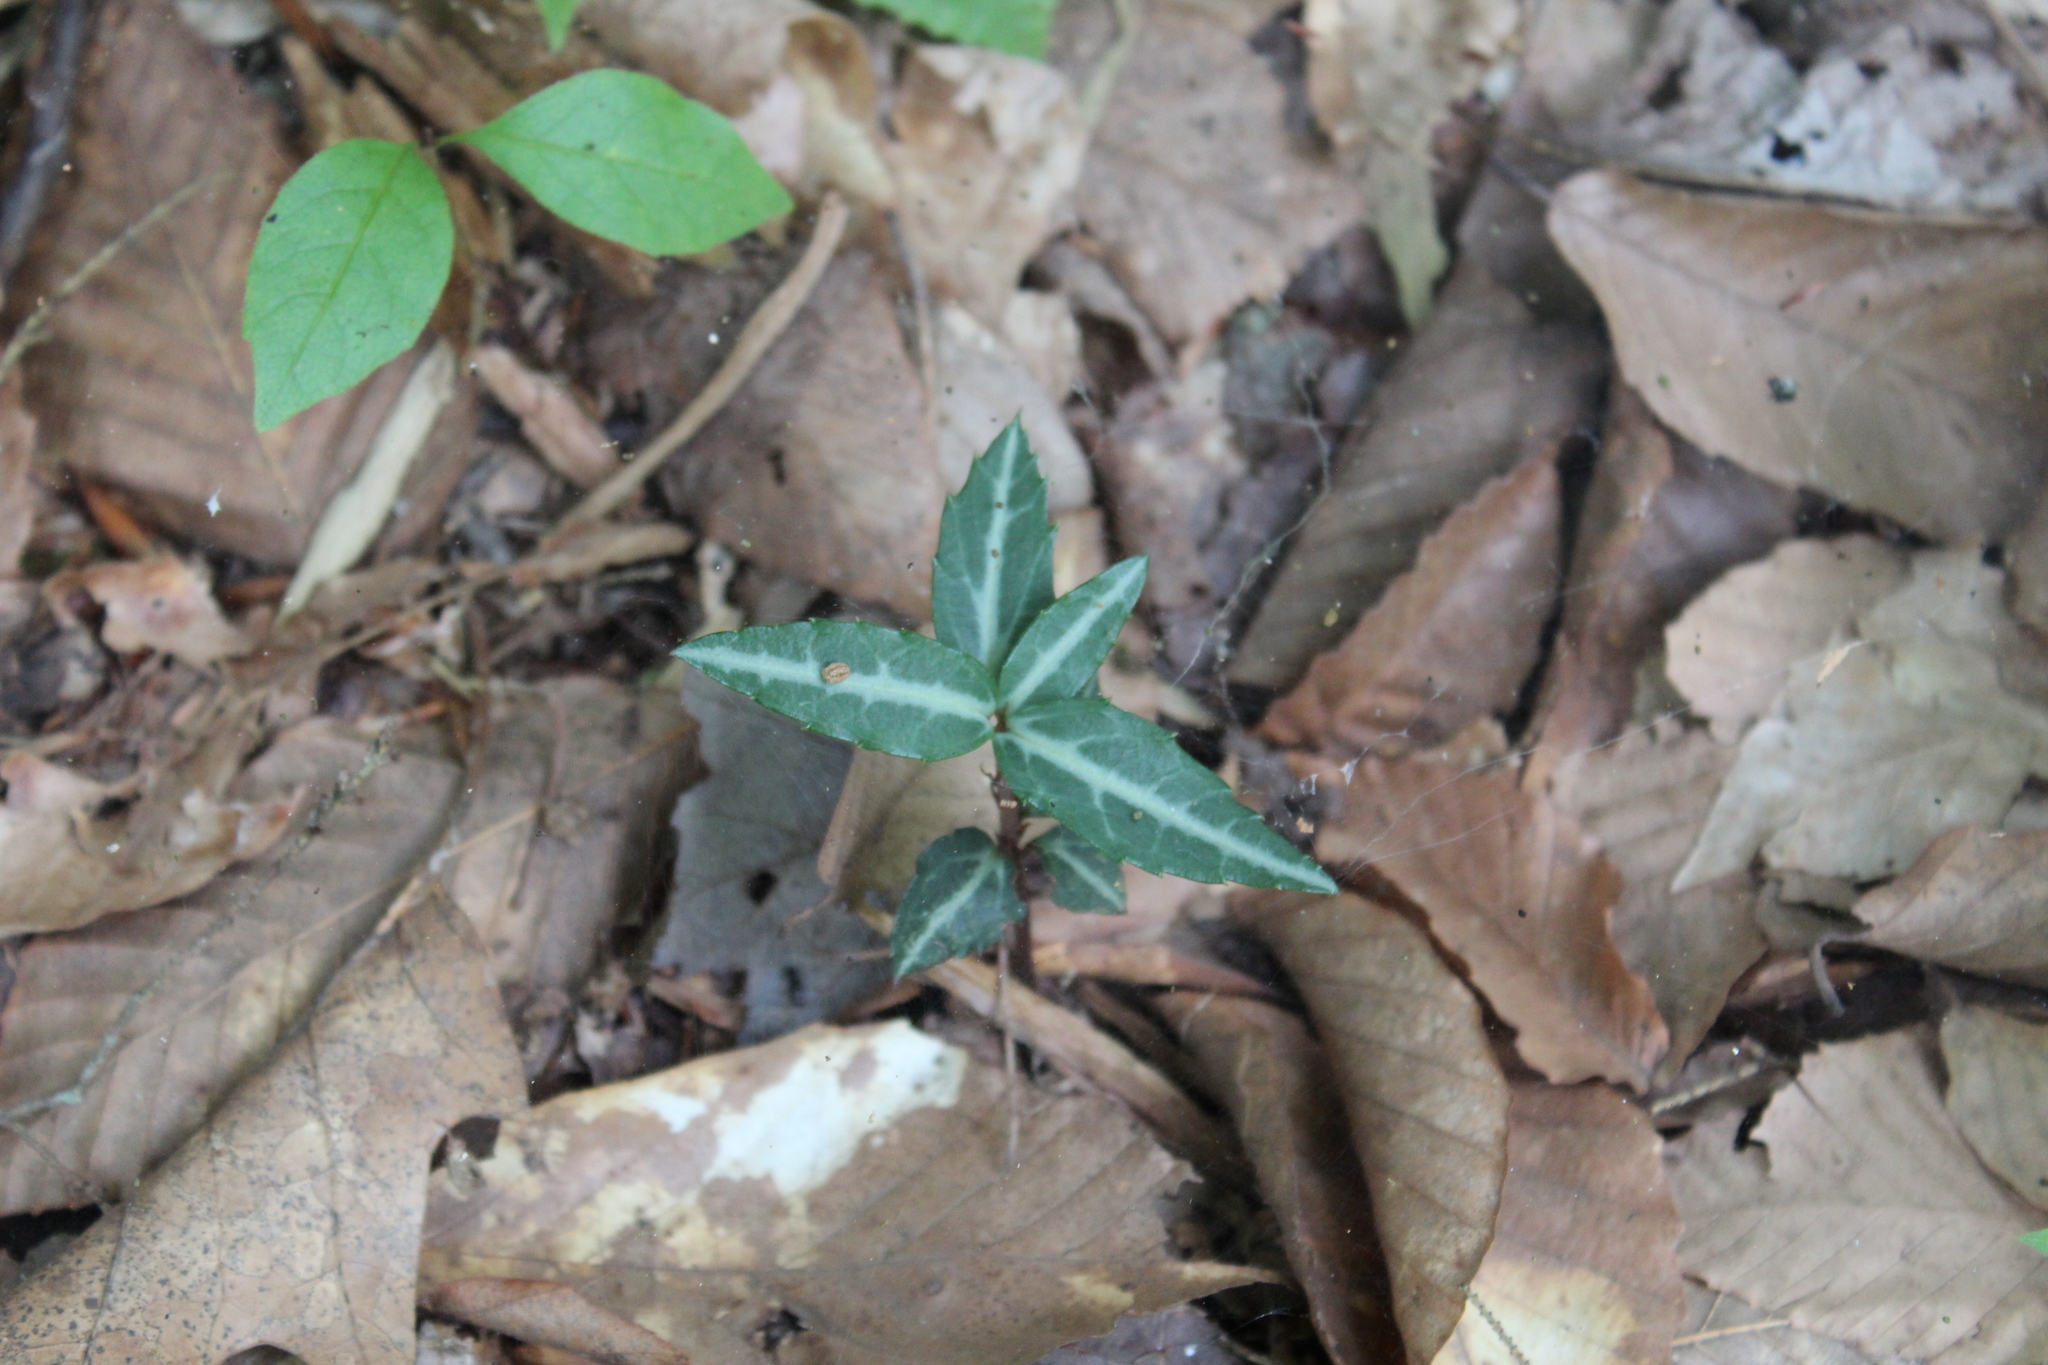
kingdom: Plantae
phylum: Tracheophyta
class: Magnoliopsida
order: Ericales
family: Ericaceae
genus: Chimaphila
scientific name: Chimaphila maculata
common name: Spotted pipsissewa
